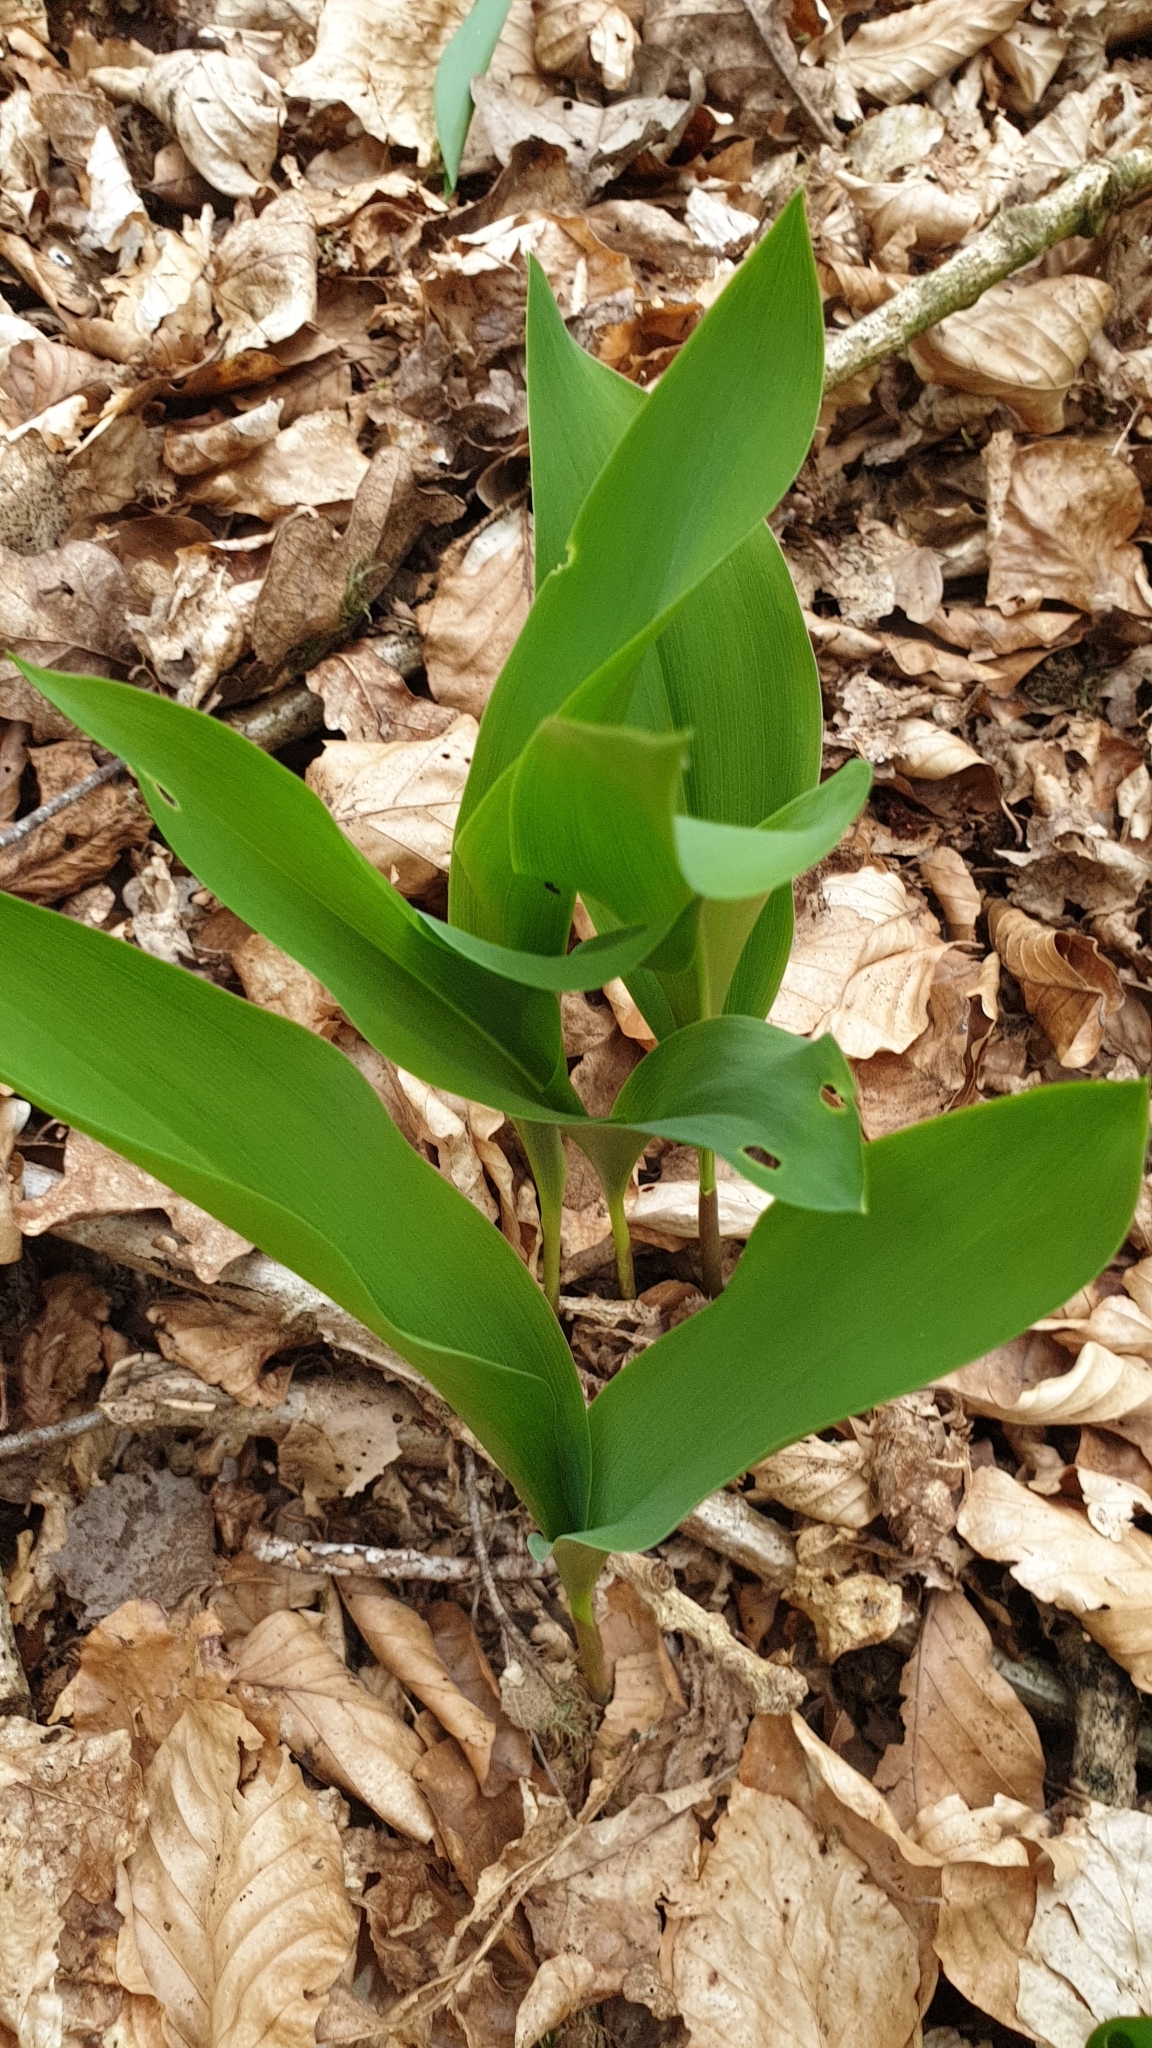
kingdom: Plantae
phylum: Tracheophyta
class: Liliopsida
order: Asparagales
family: Asparagaceae
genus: Convallaria
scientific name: Convallaria majalis
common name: Lily-of-the-valley
